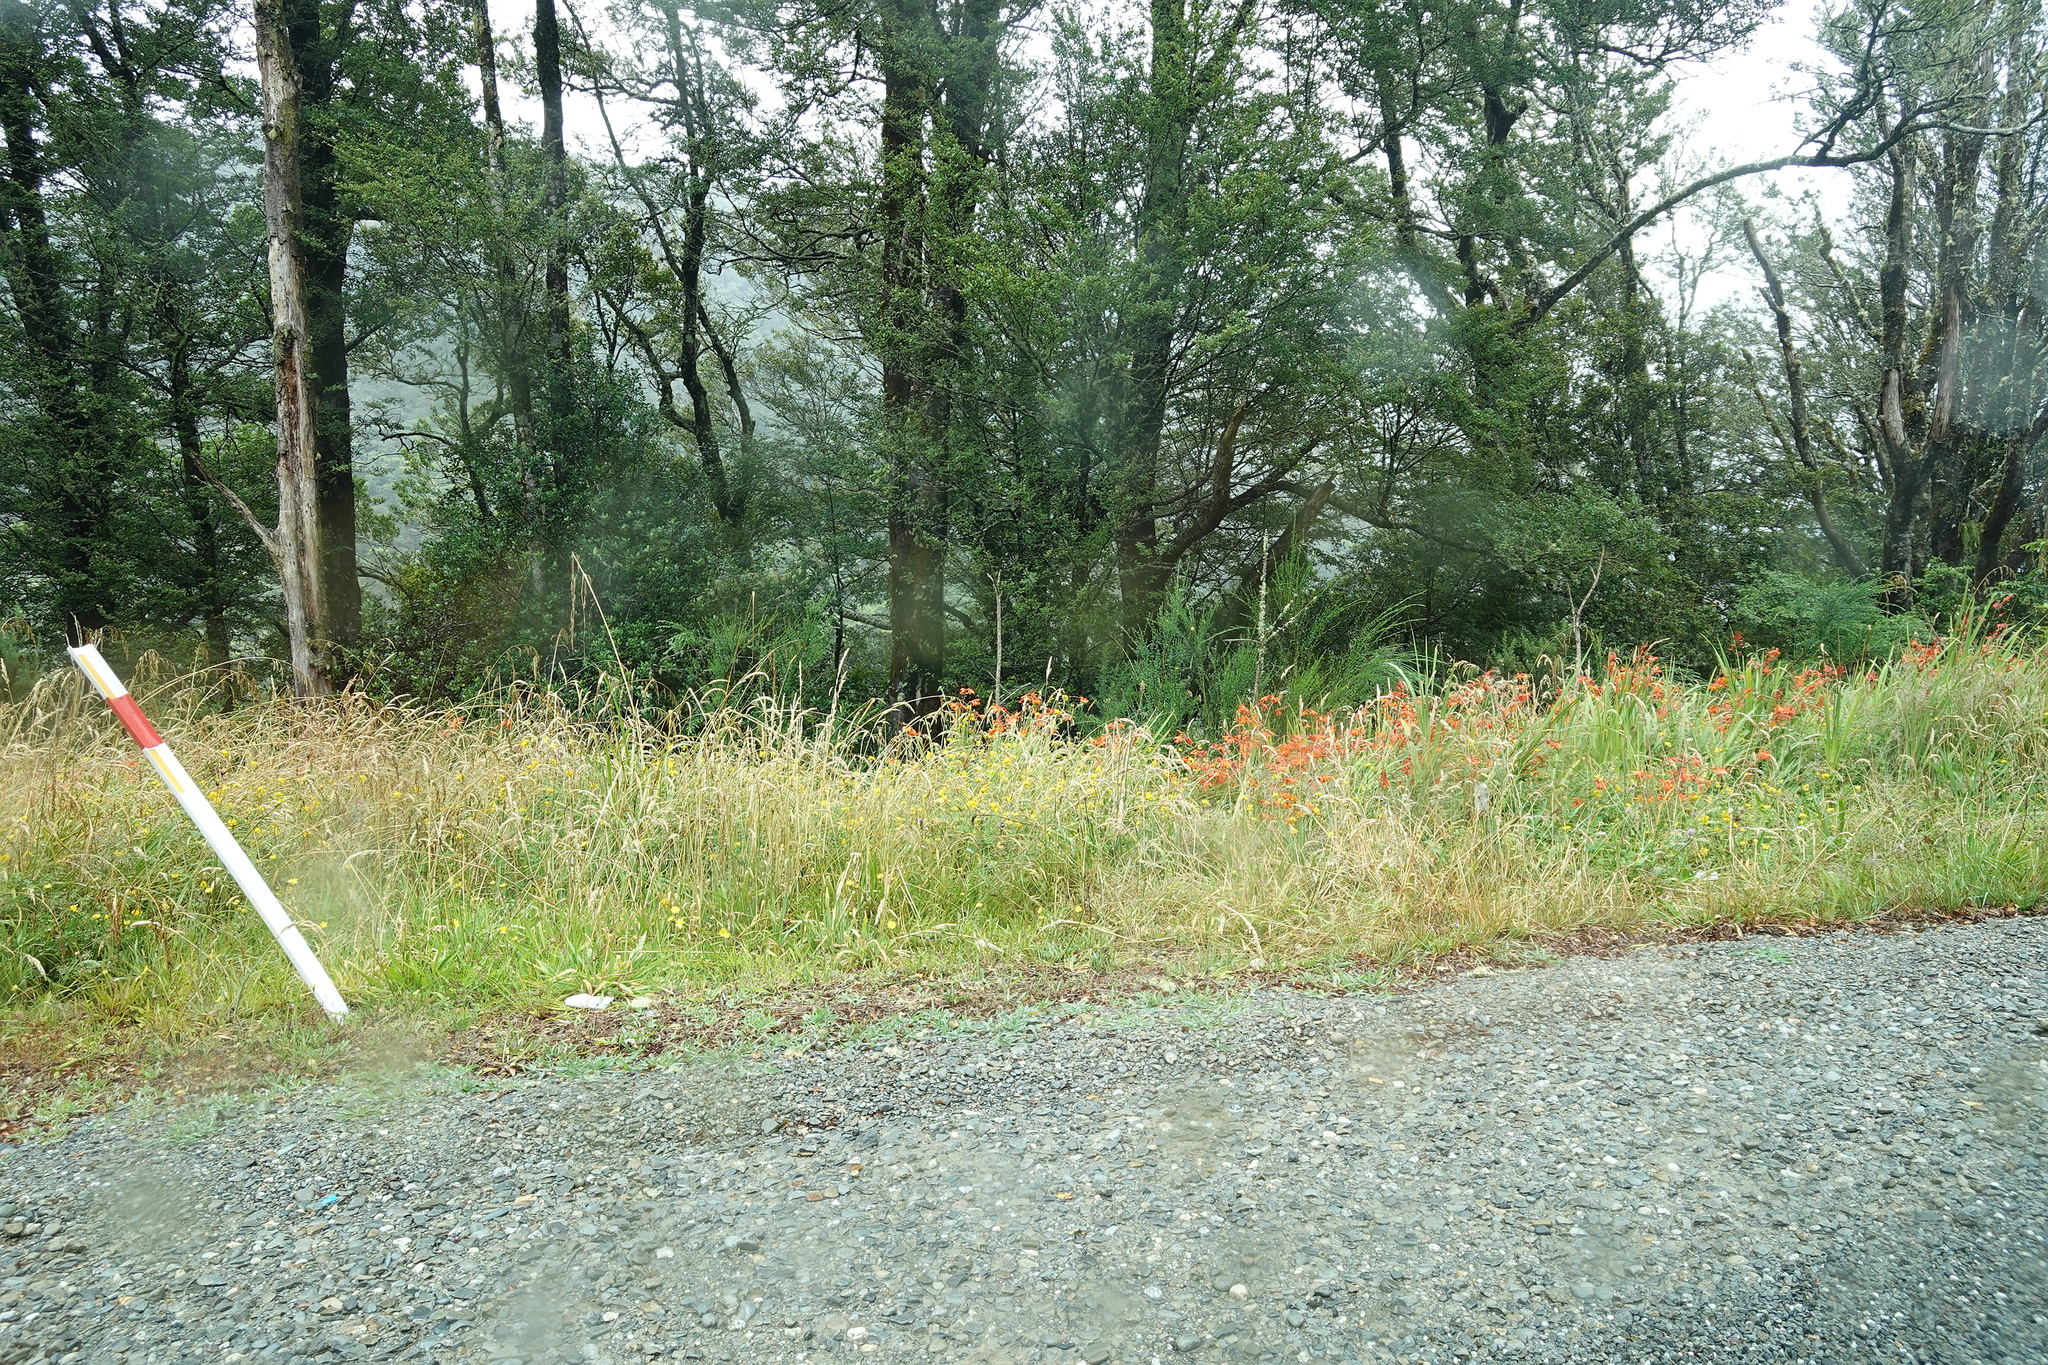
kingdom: Plantae
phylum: Tracheophyta
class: Liliopsida
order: Asparagales
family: Iridaceae
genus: Crocosmia
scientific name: Crocosmia crocosmiiflora
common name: Montbretia
